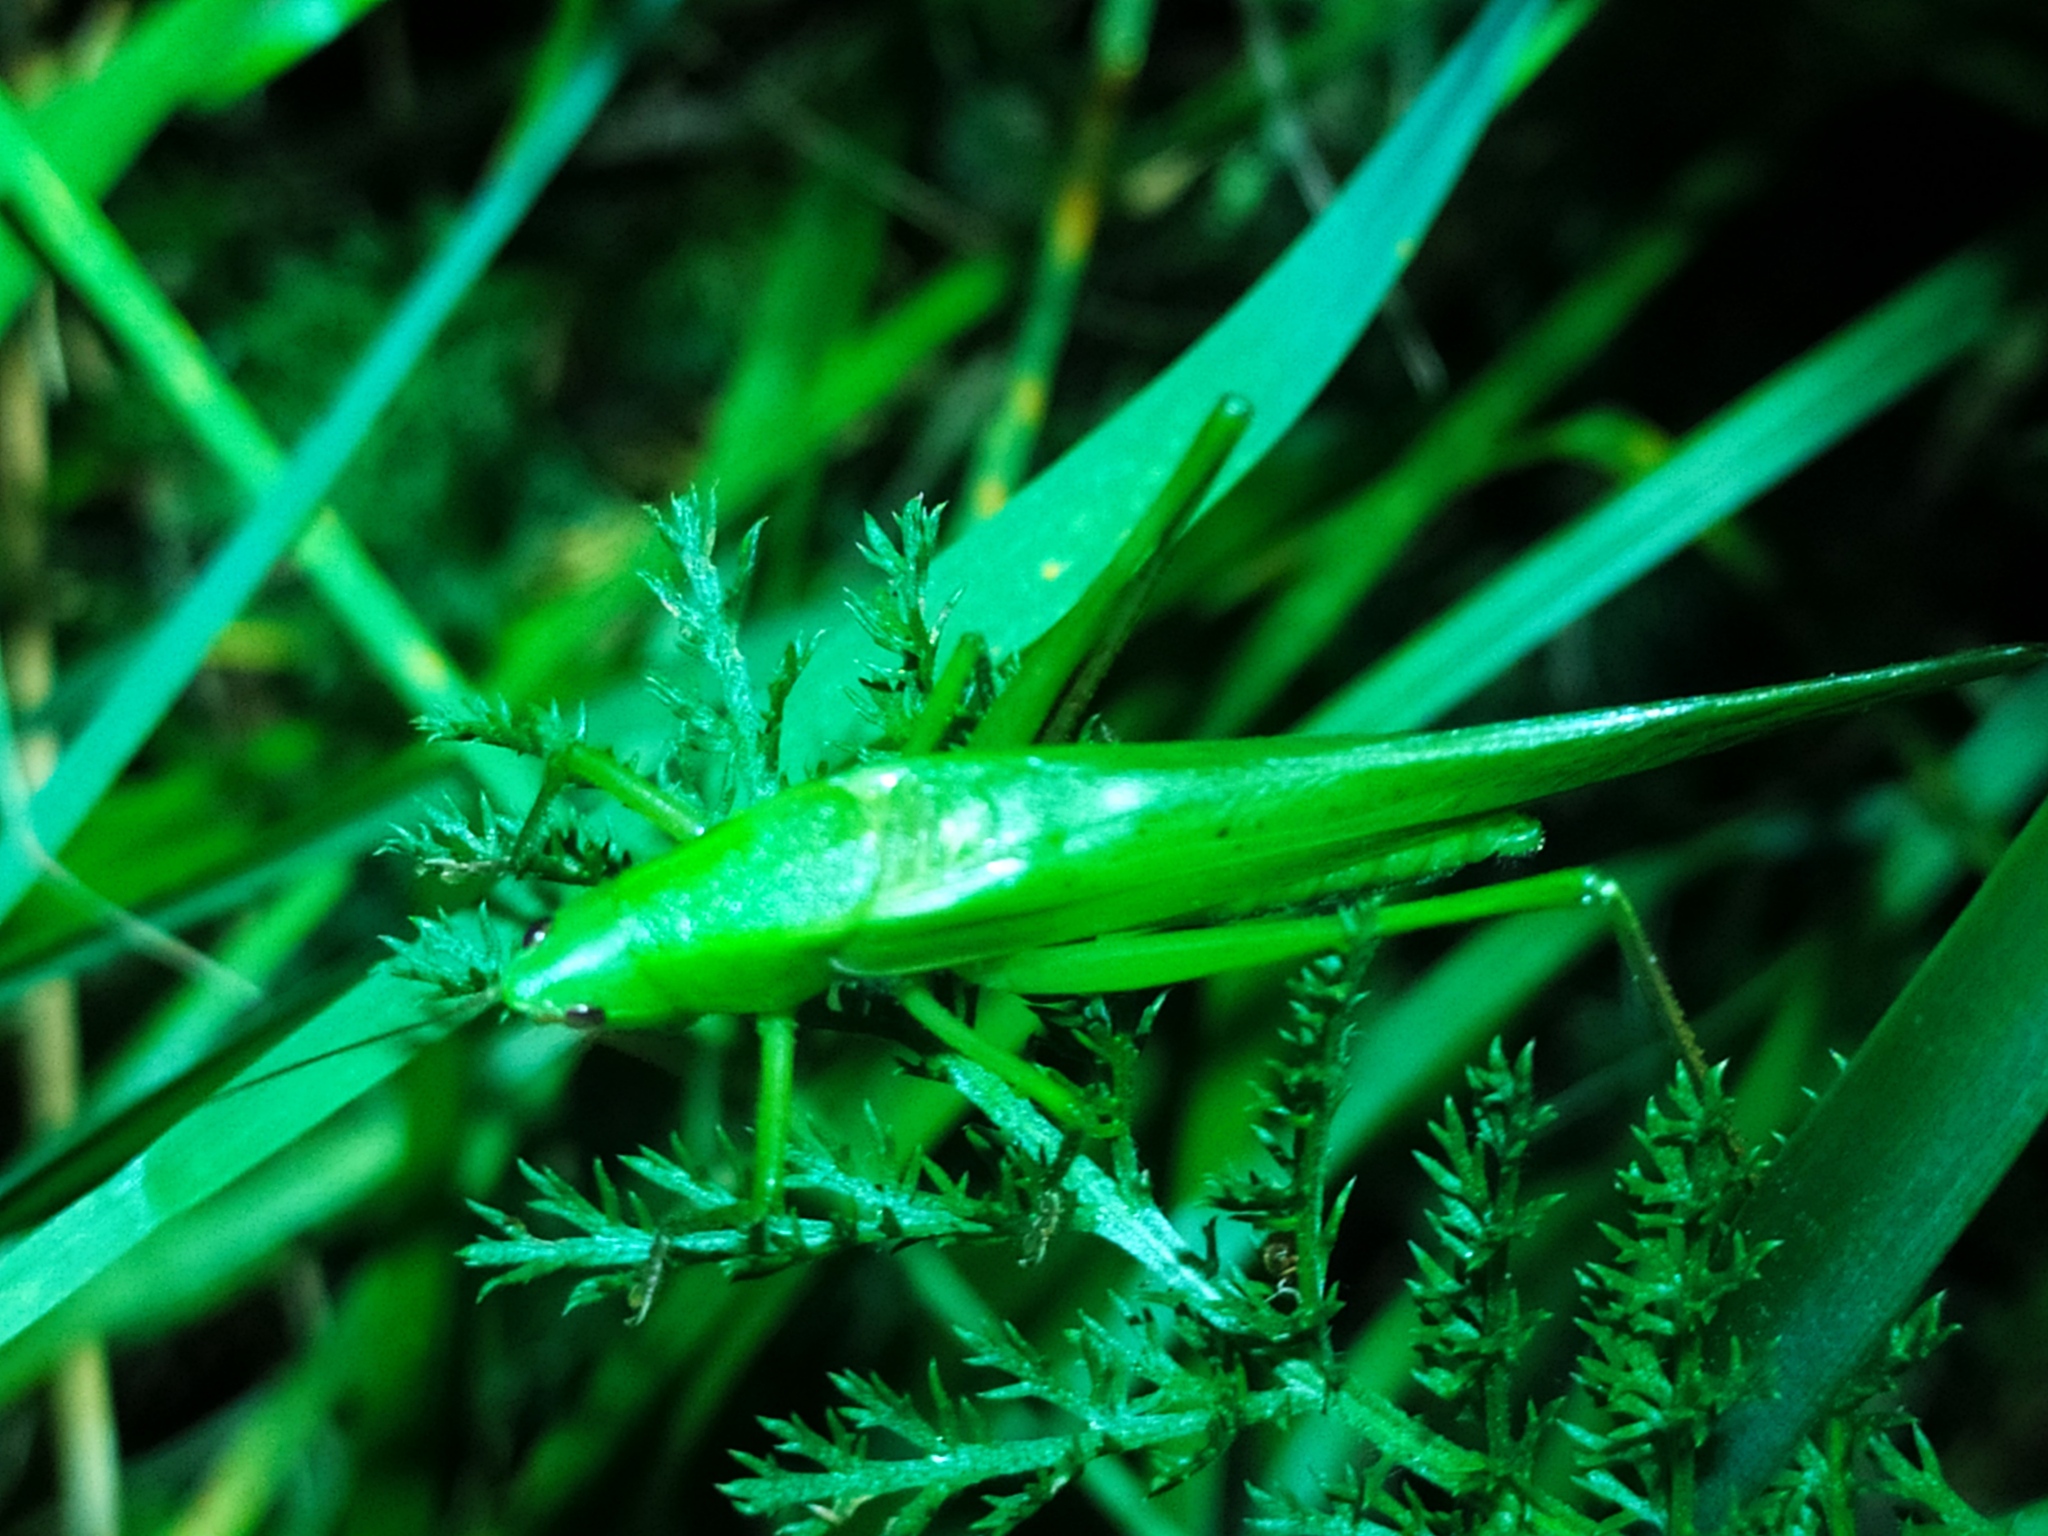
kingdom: Animalia
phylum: Arthropoda
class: Insecta
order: Orthoptera
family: Tettigoniidae
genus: Ruspolia
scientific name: Ruspolia nitidula
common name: Large conehead
